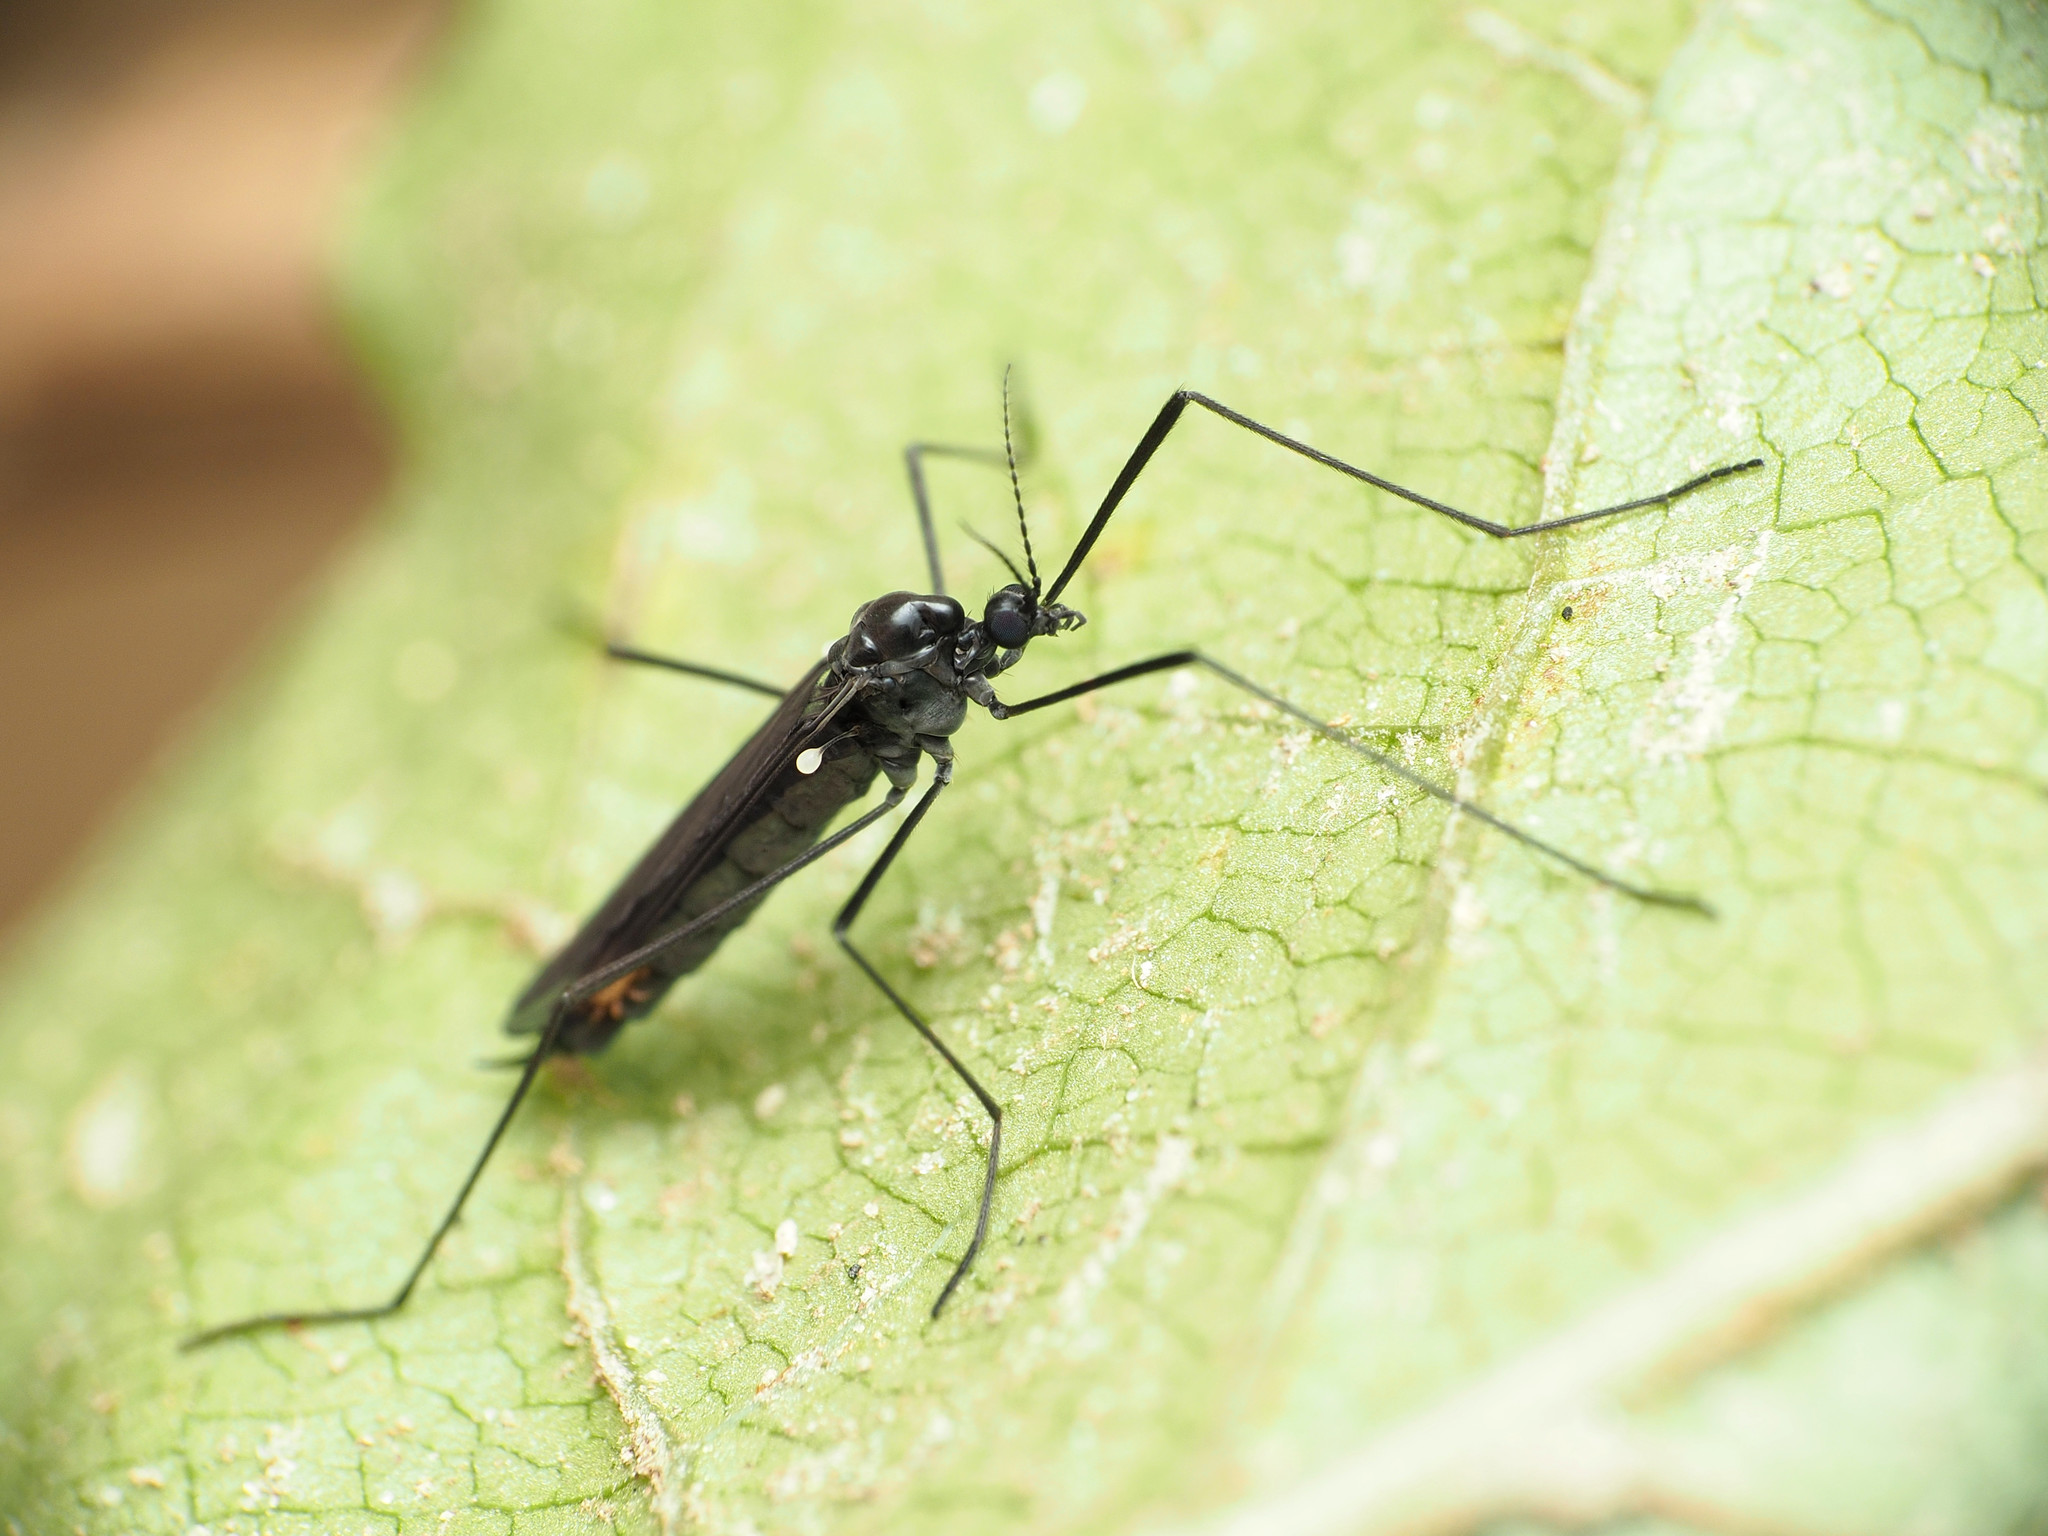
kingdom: Animalia
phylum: Arthropoda
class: Insecta
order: Diptera
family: Limoniidae
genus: Gnophomyia
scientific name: Gnophomyia tristissima
